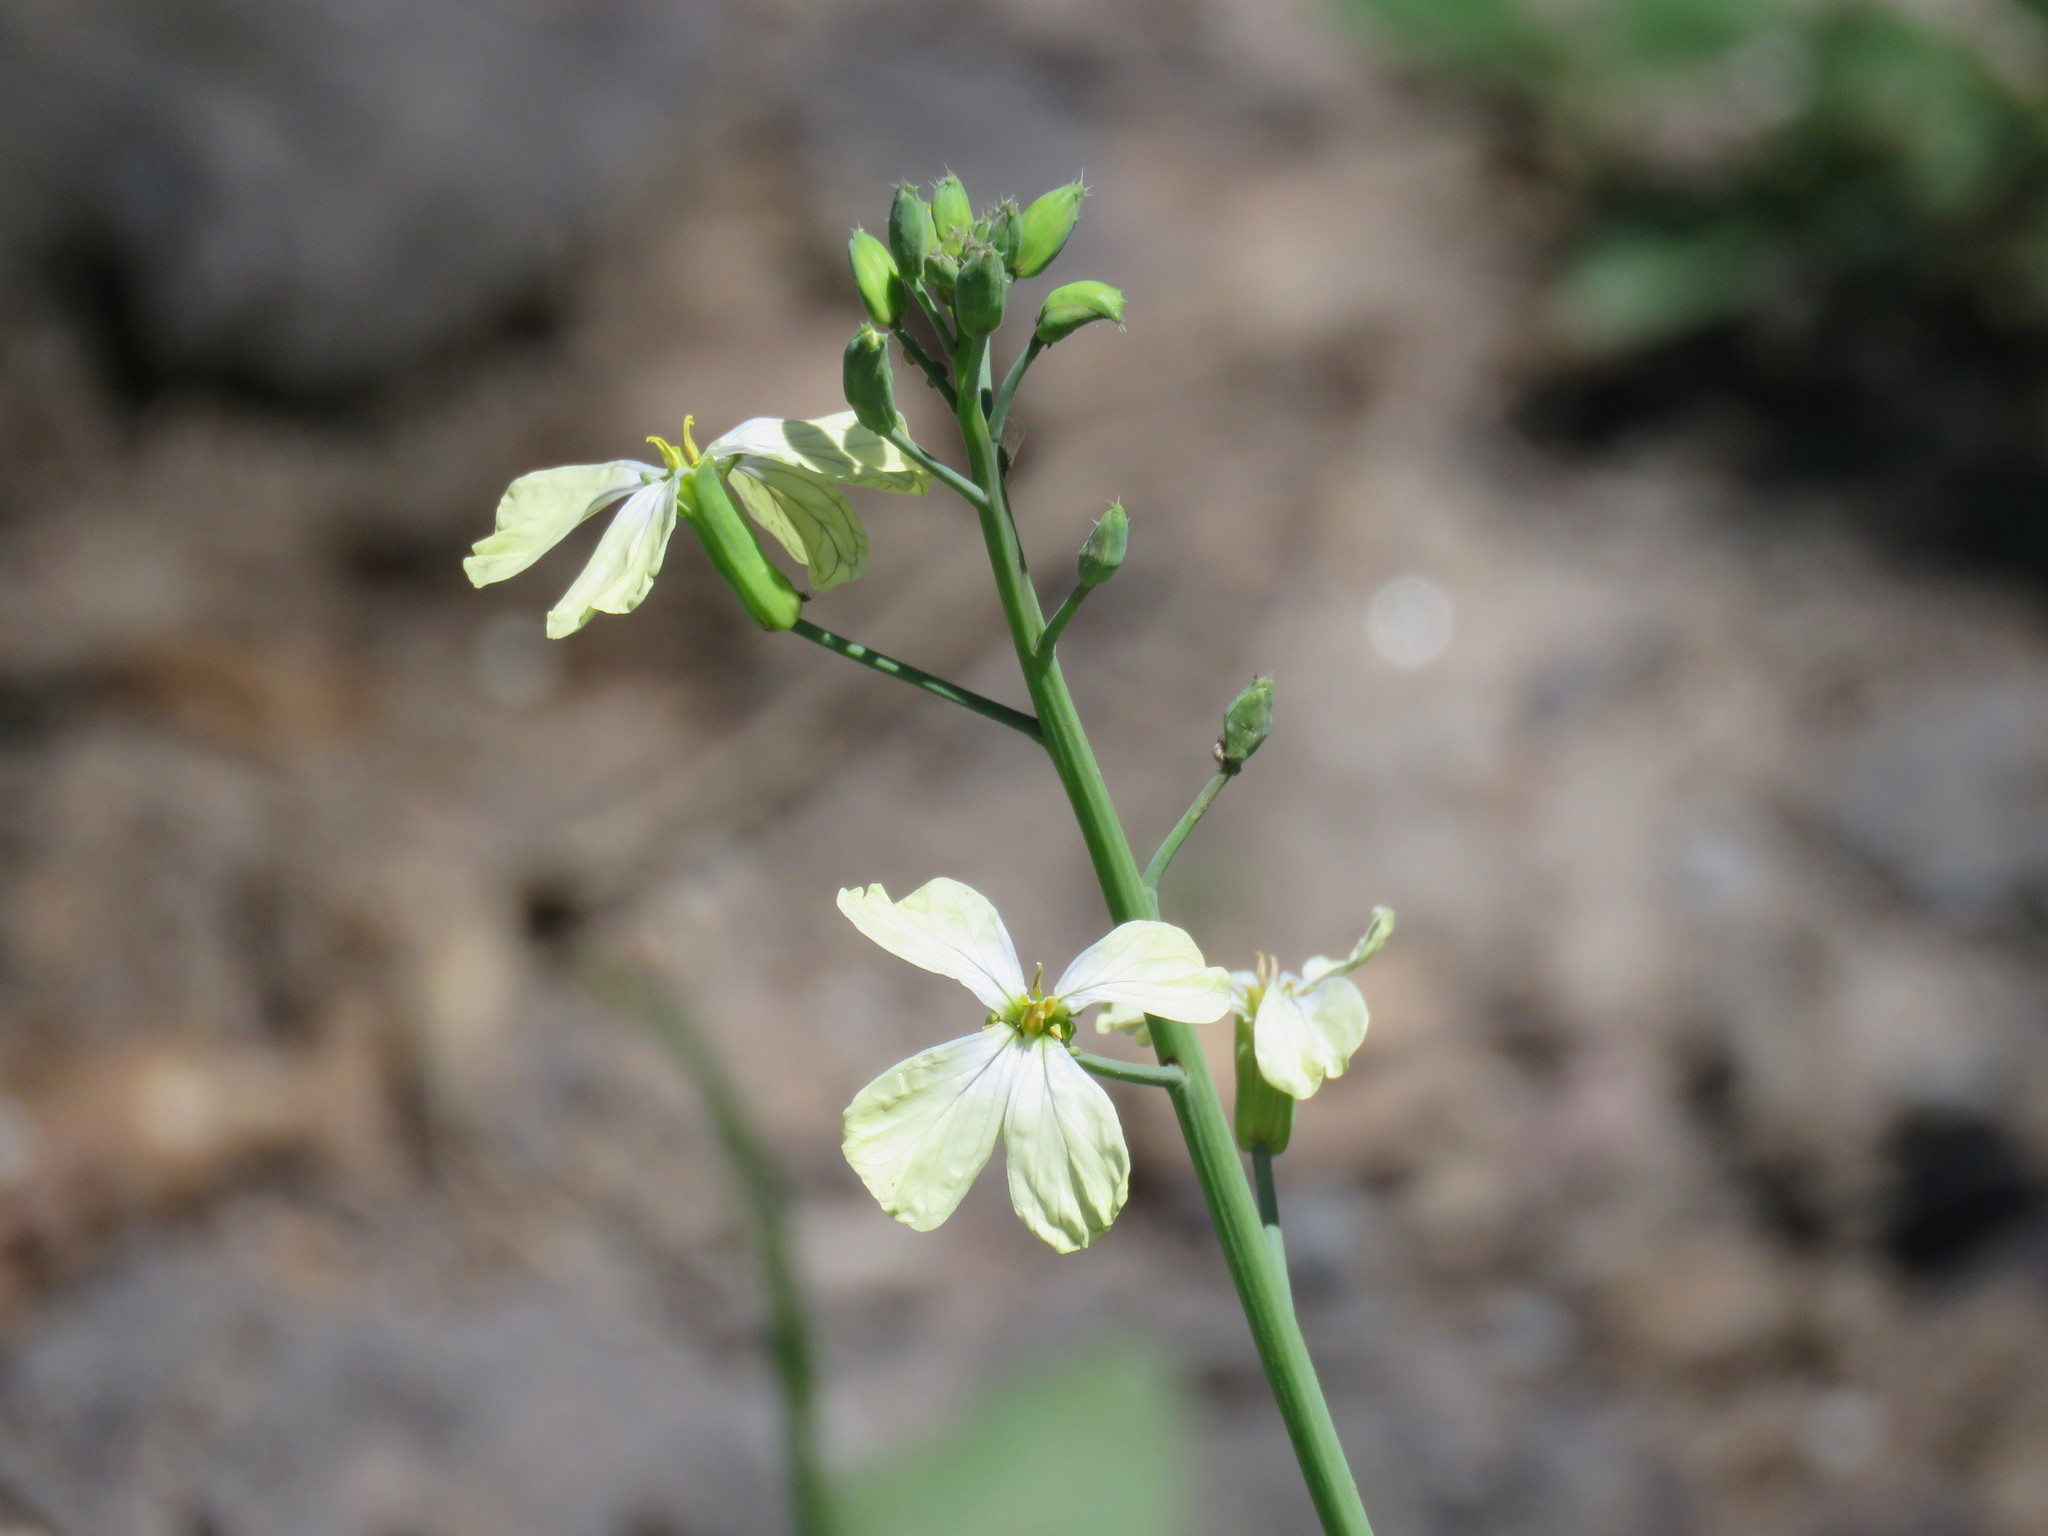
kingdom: Plantae
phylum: Tracheophyta
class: Magnoliopsida
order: Brassicales
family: Brassicaceae
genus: Raphanus
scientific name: Raphanus raphanistrum
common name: Wild radish
